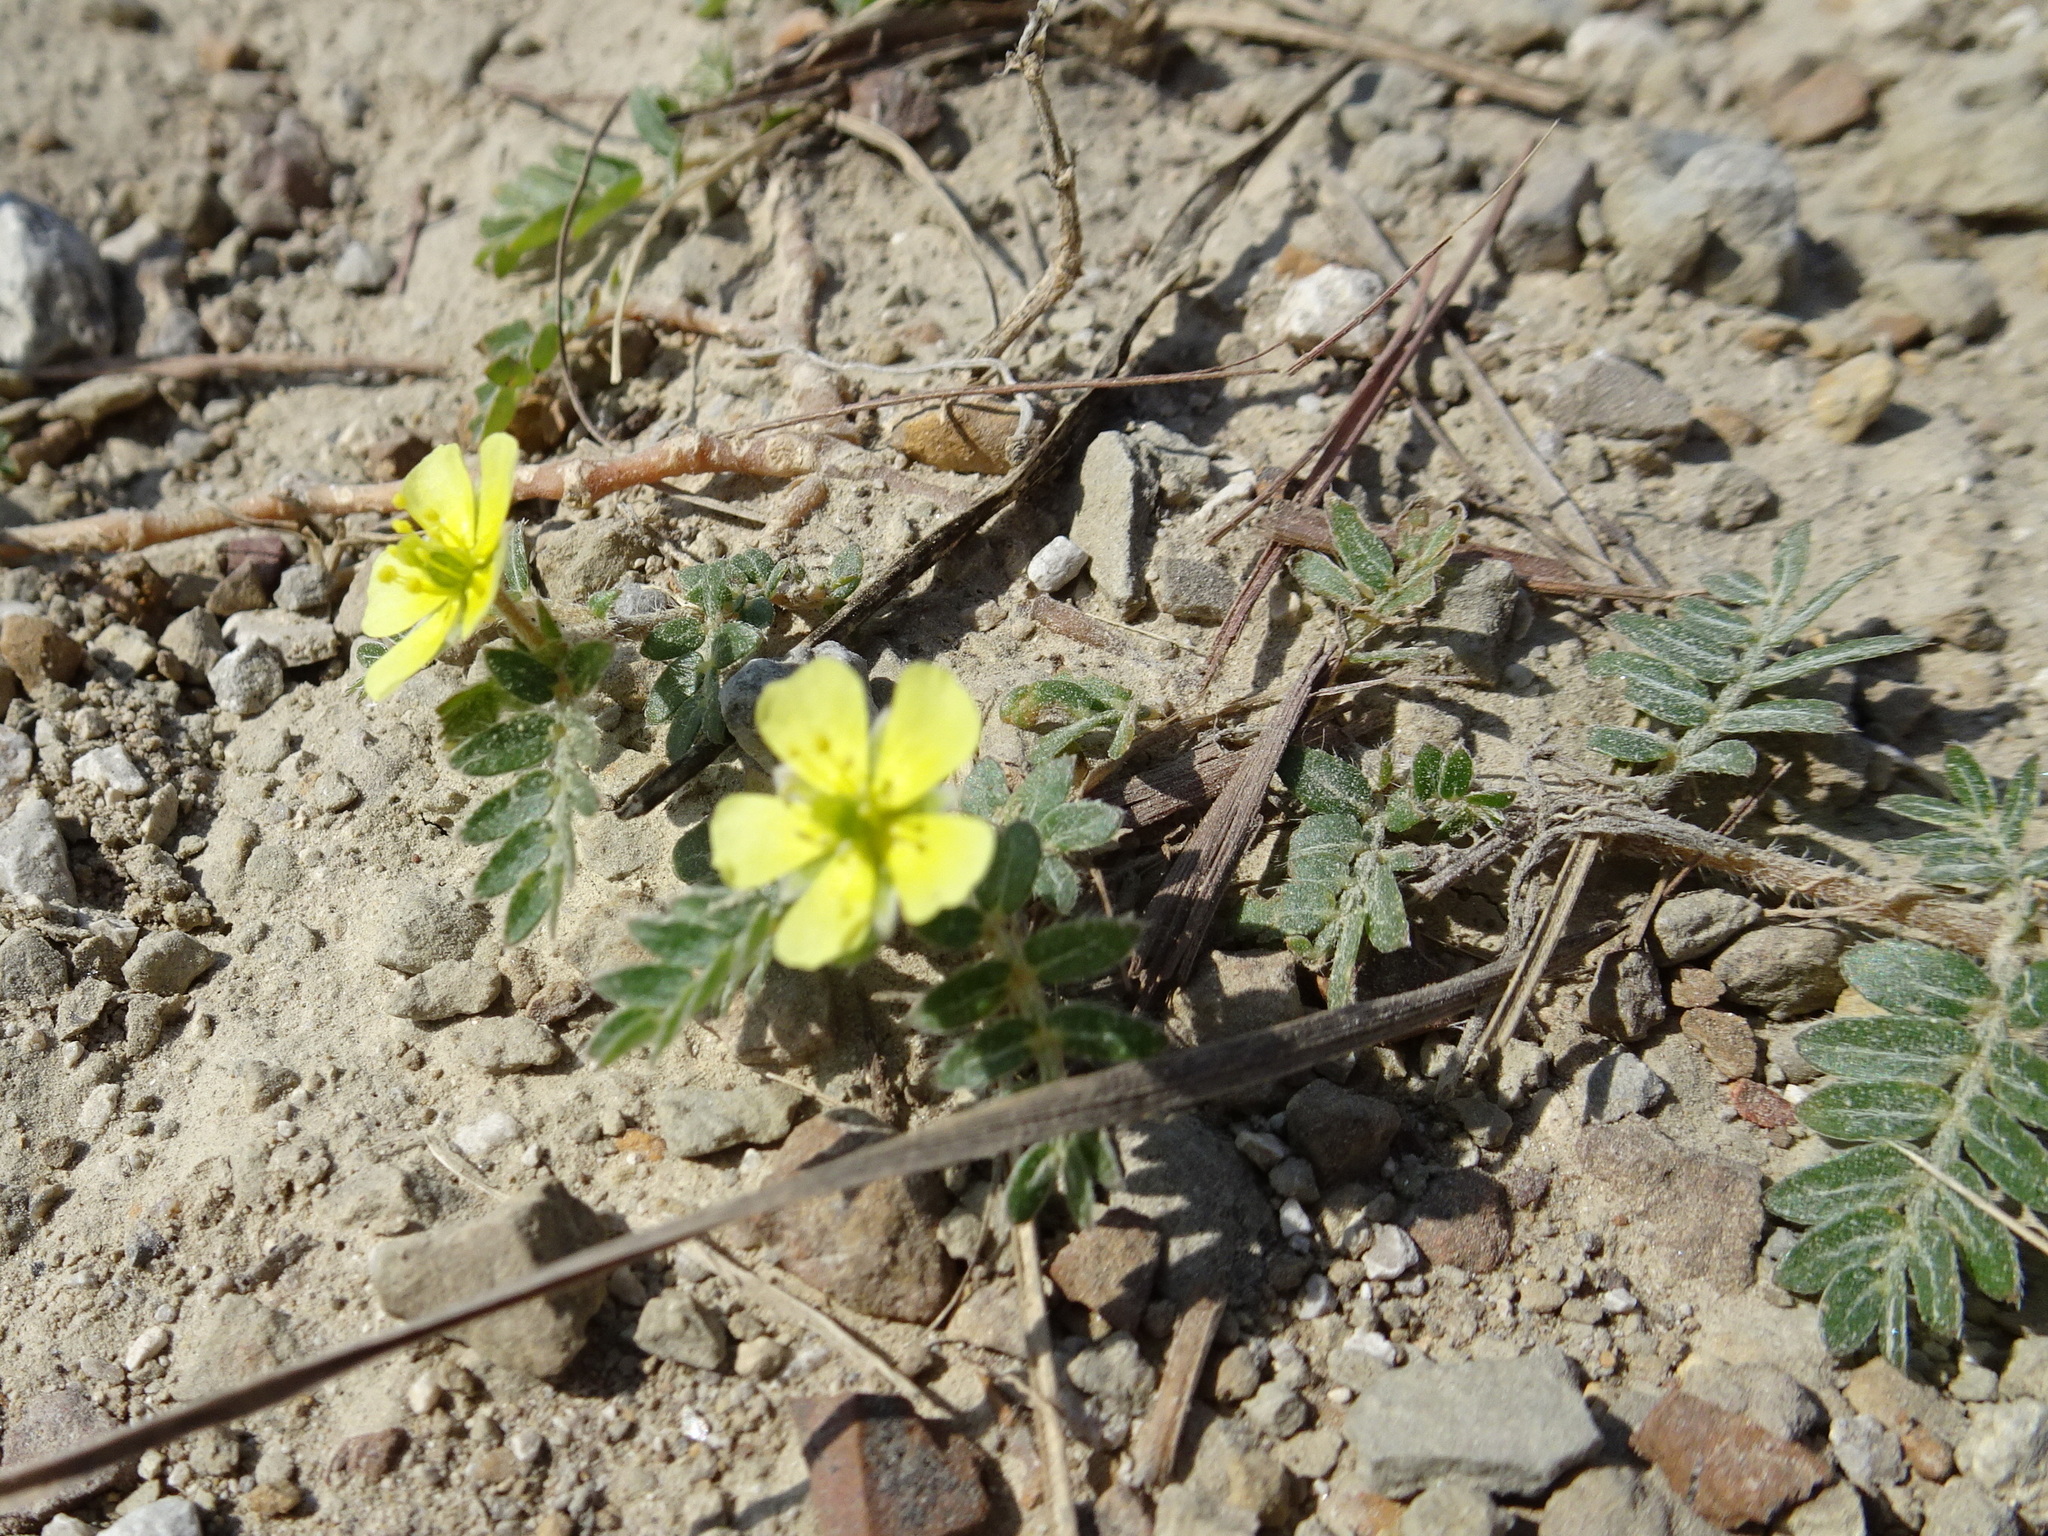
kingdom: Plantae
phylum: Tracheophyta
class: Magnoliopsida
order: Zygophyllales
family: Zygophyllaceae
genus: Tribulus
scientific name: Tribulus terrestris
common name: Puncturevine
